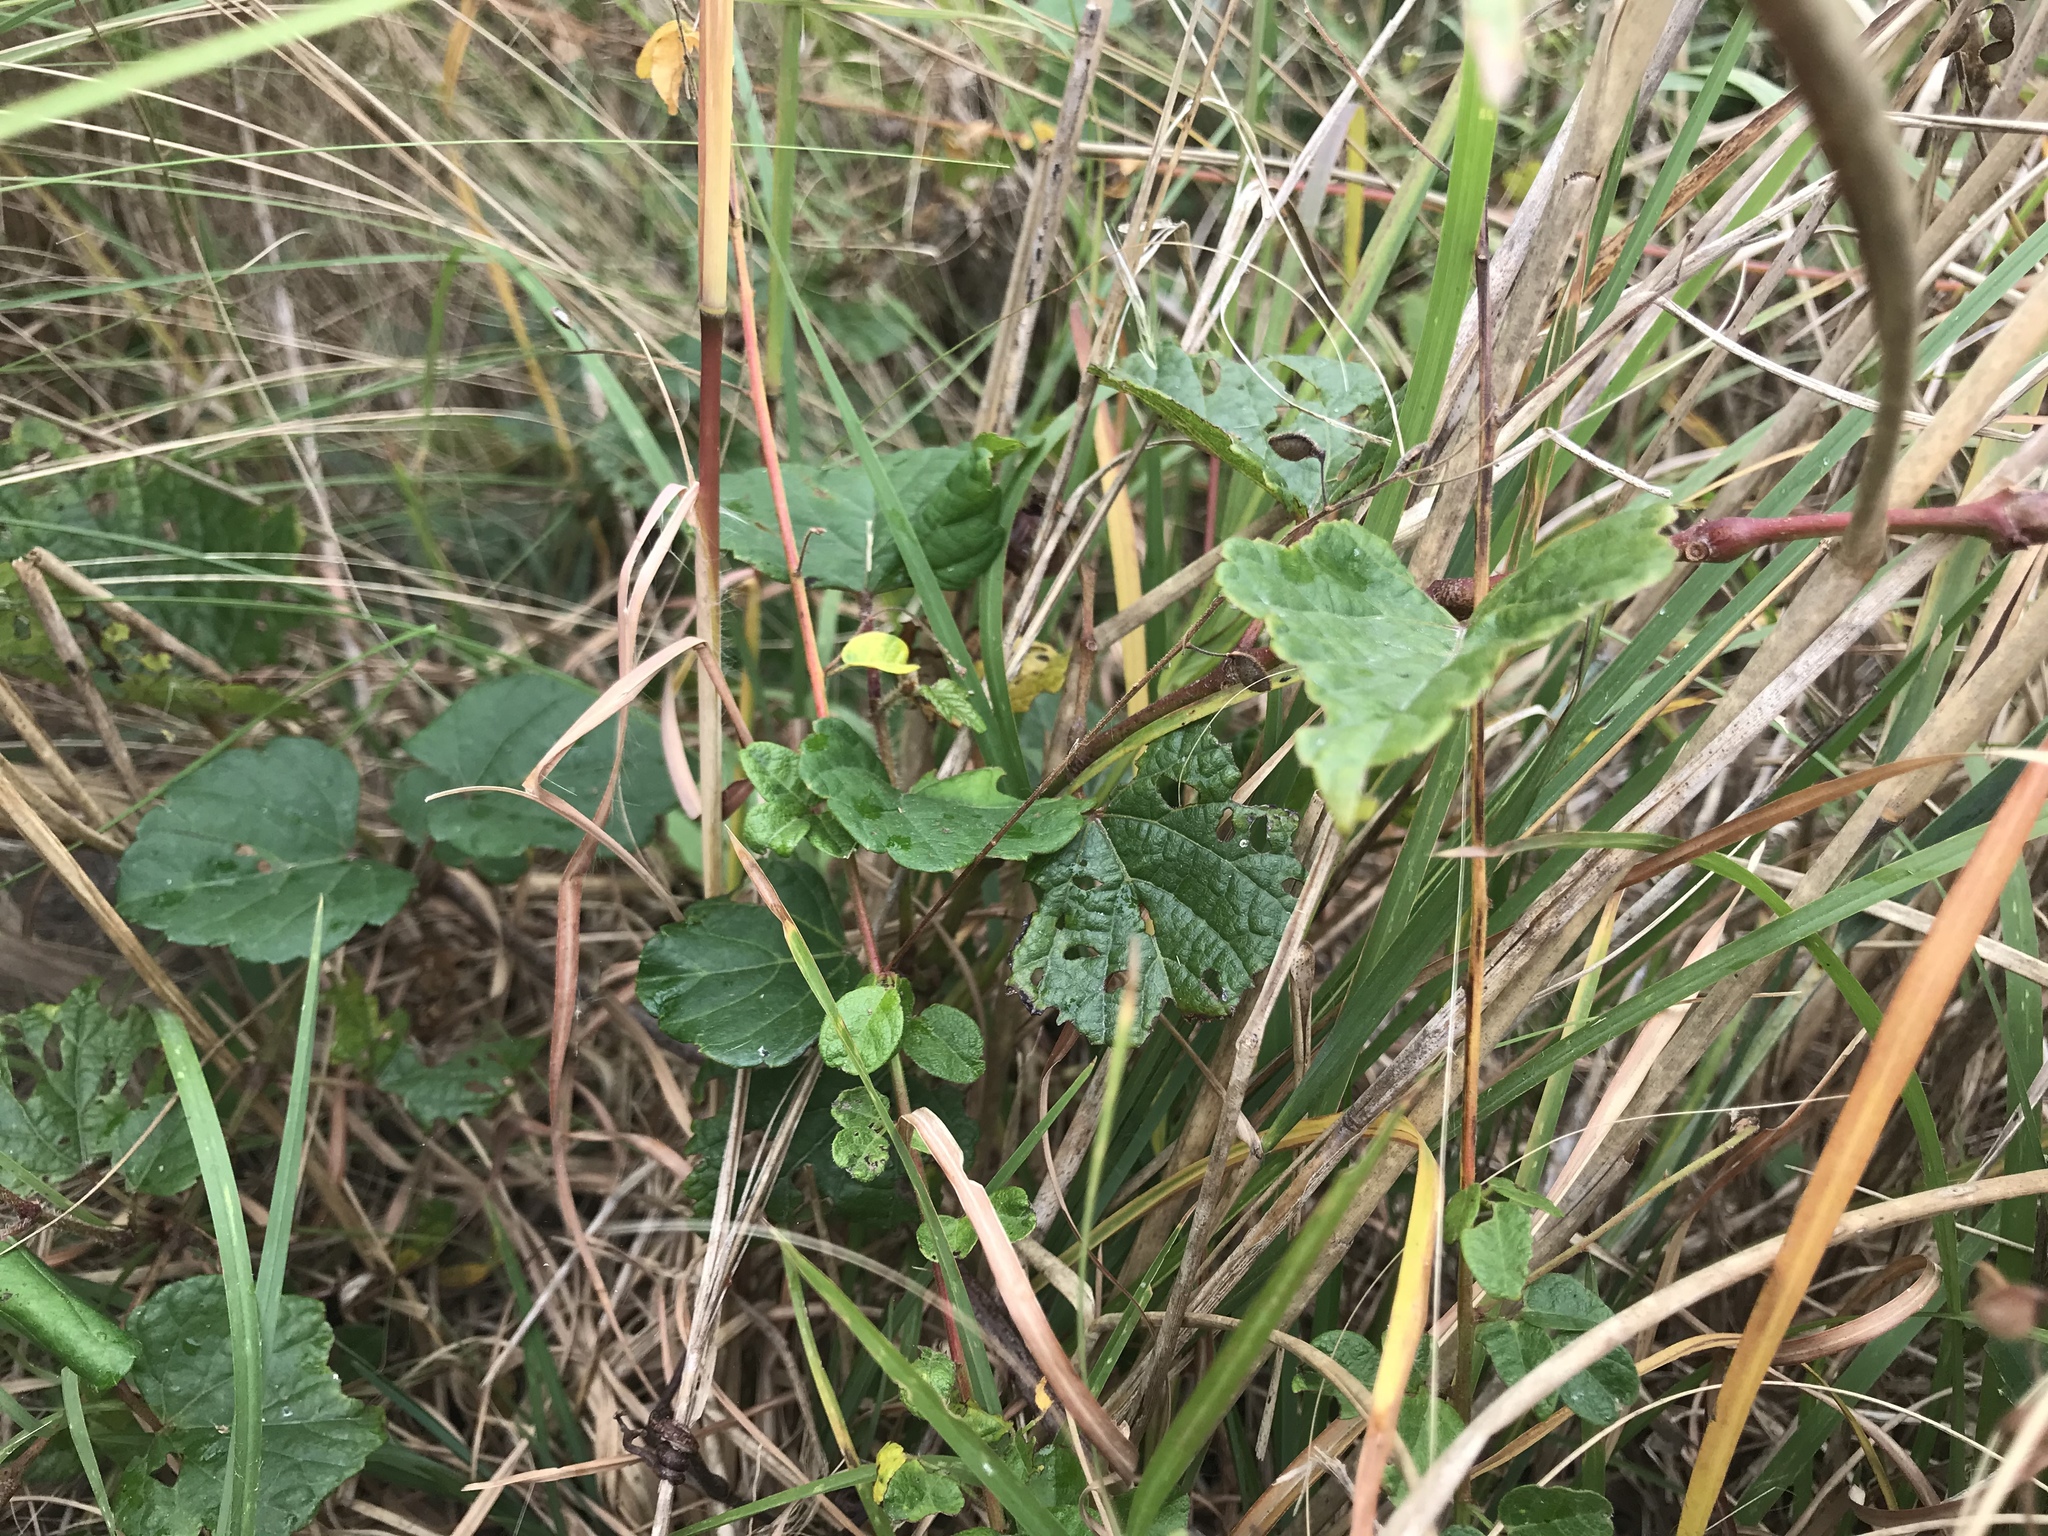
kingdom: Plantae
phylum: Tracheophyta
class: Magnoliopsida
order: Vitales
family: Vitaceae
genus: Ampelopsis
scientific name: Ampelopsis glandulosa
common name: Amur peppervine
